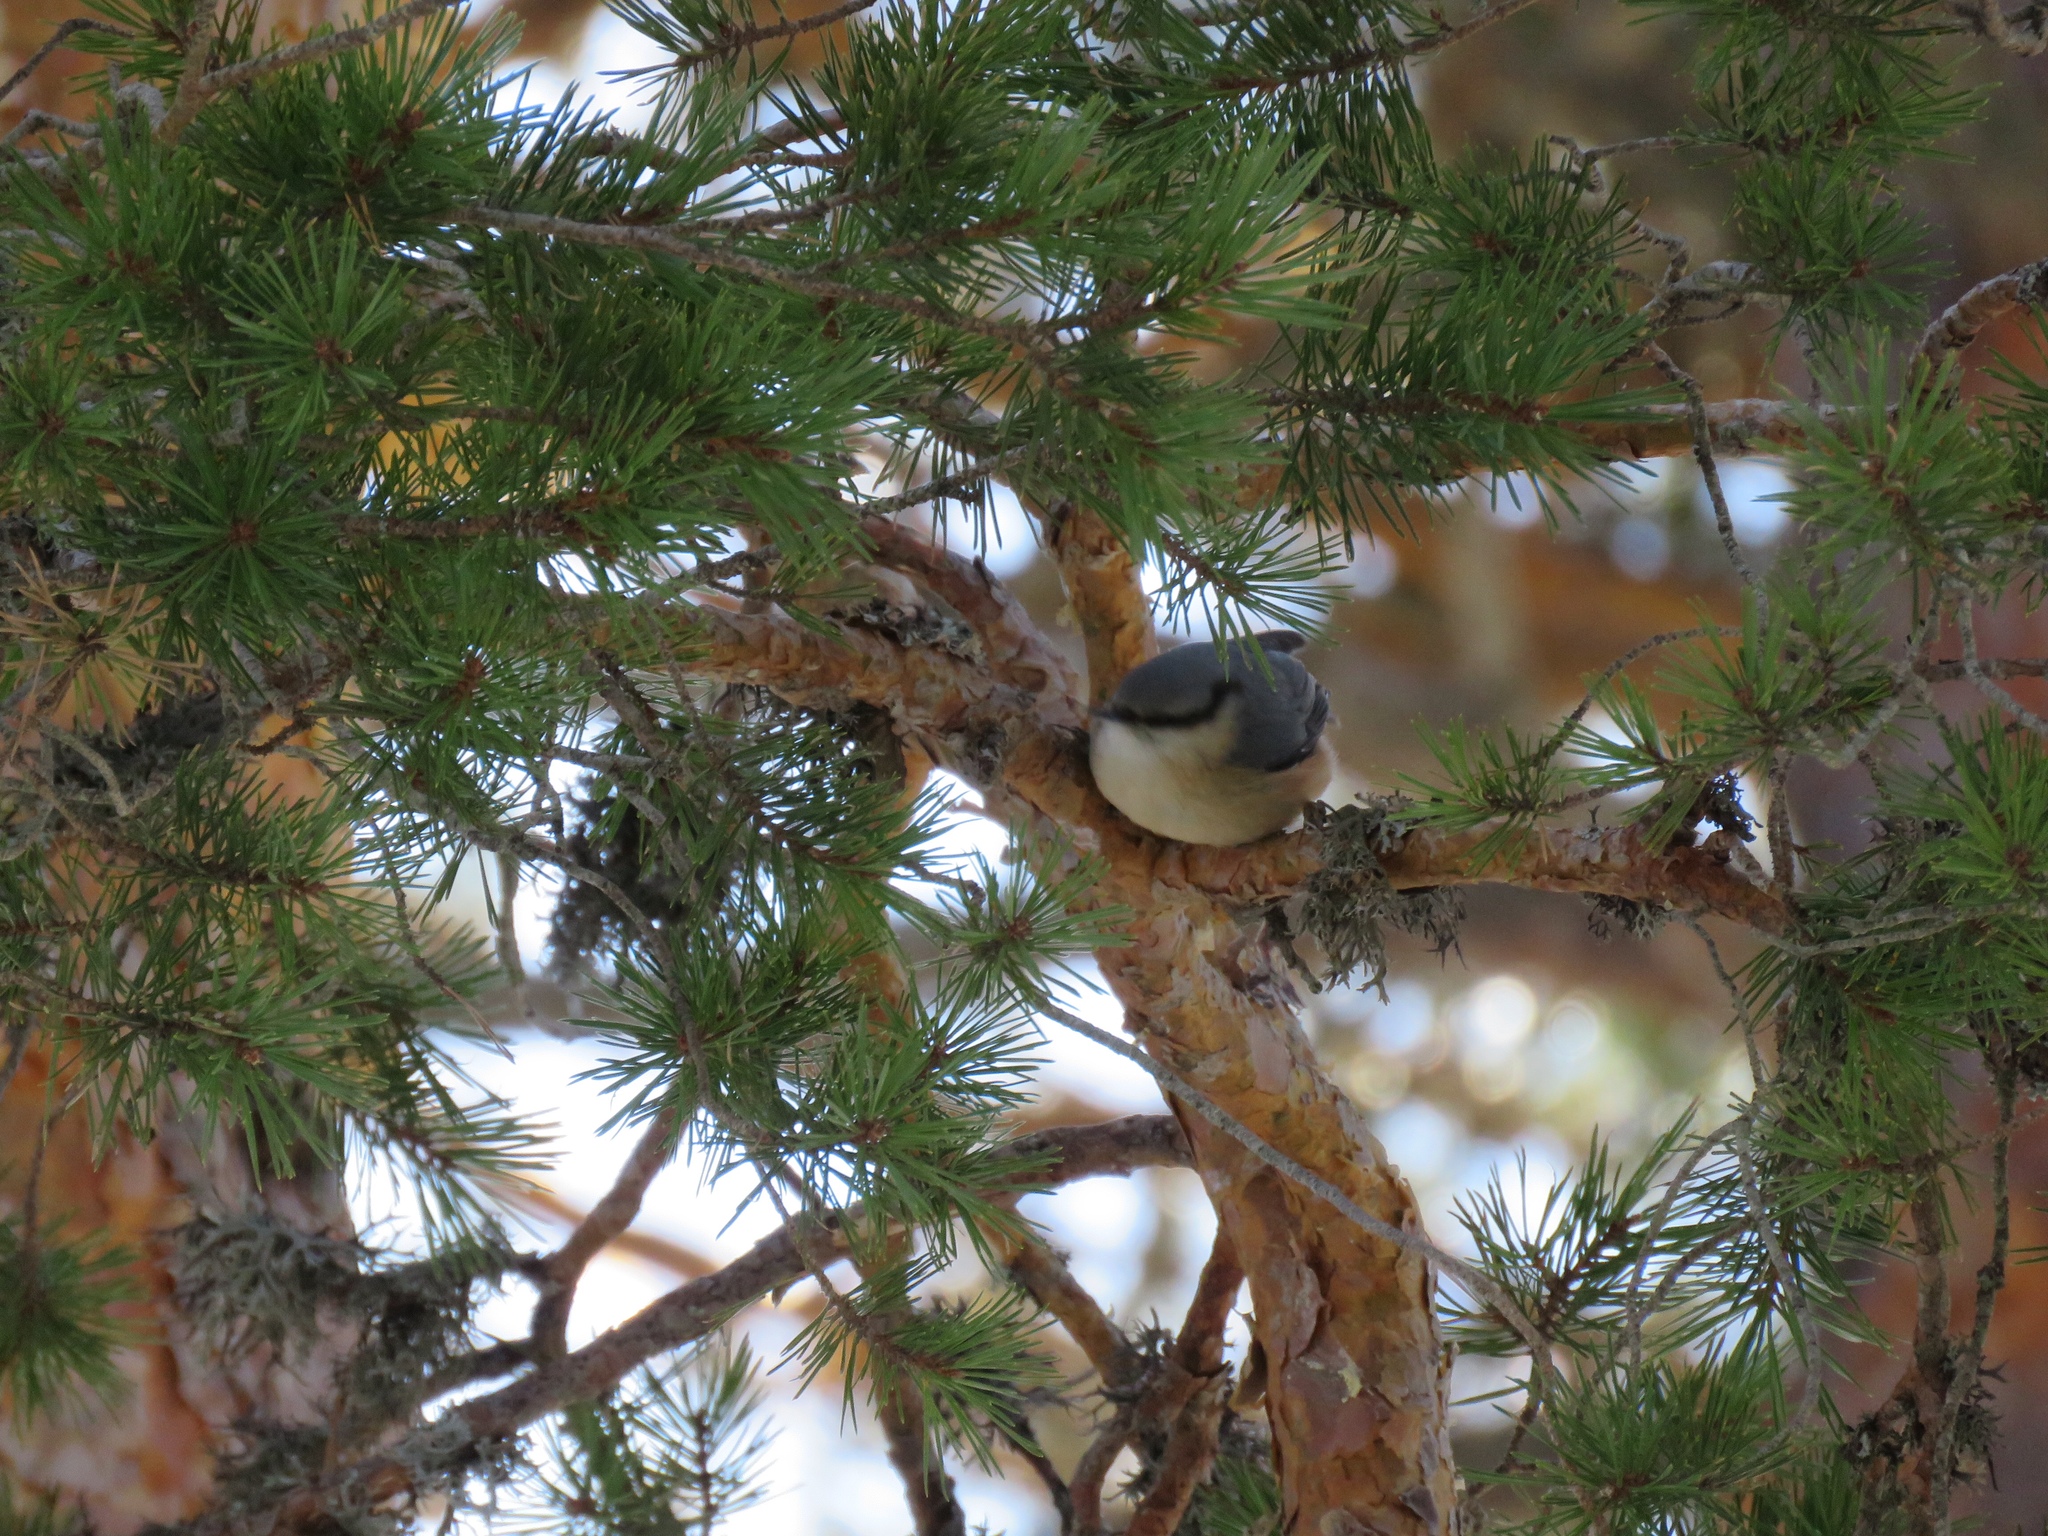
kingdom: Animalia
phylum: Chordata
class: Aves
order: Passeriformes
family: Sittidae
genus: Sitta
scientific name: Sitta europaea
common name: Eurasian nuthatch
